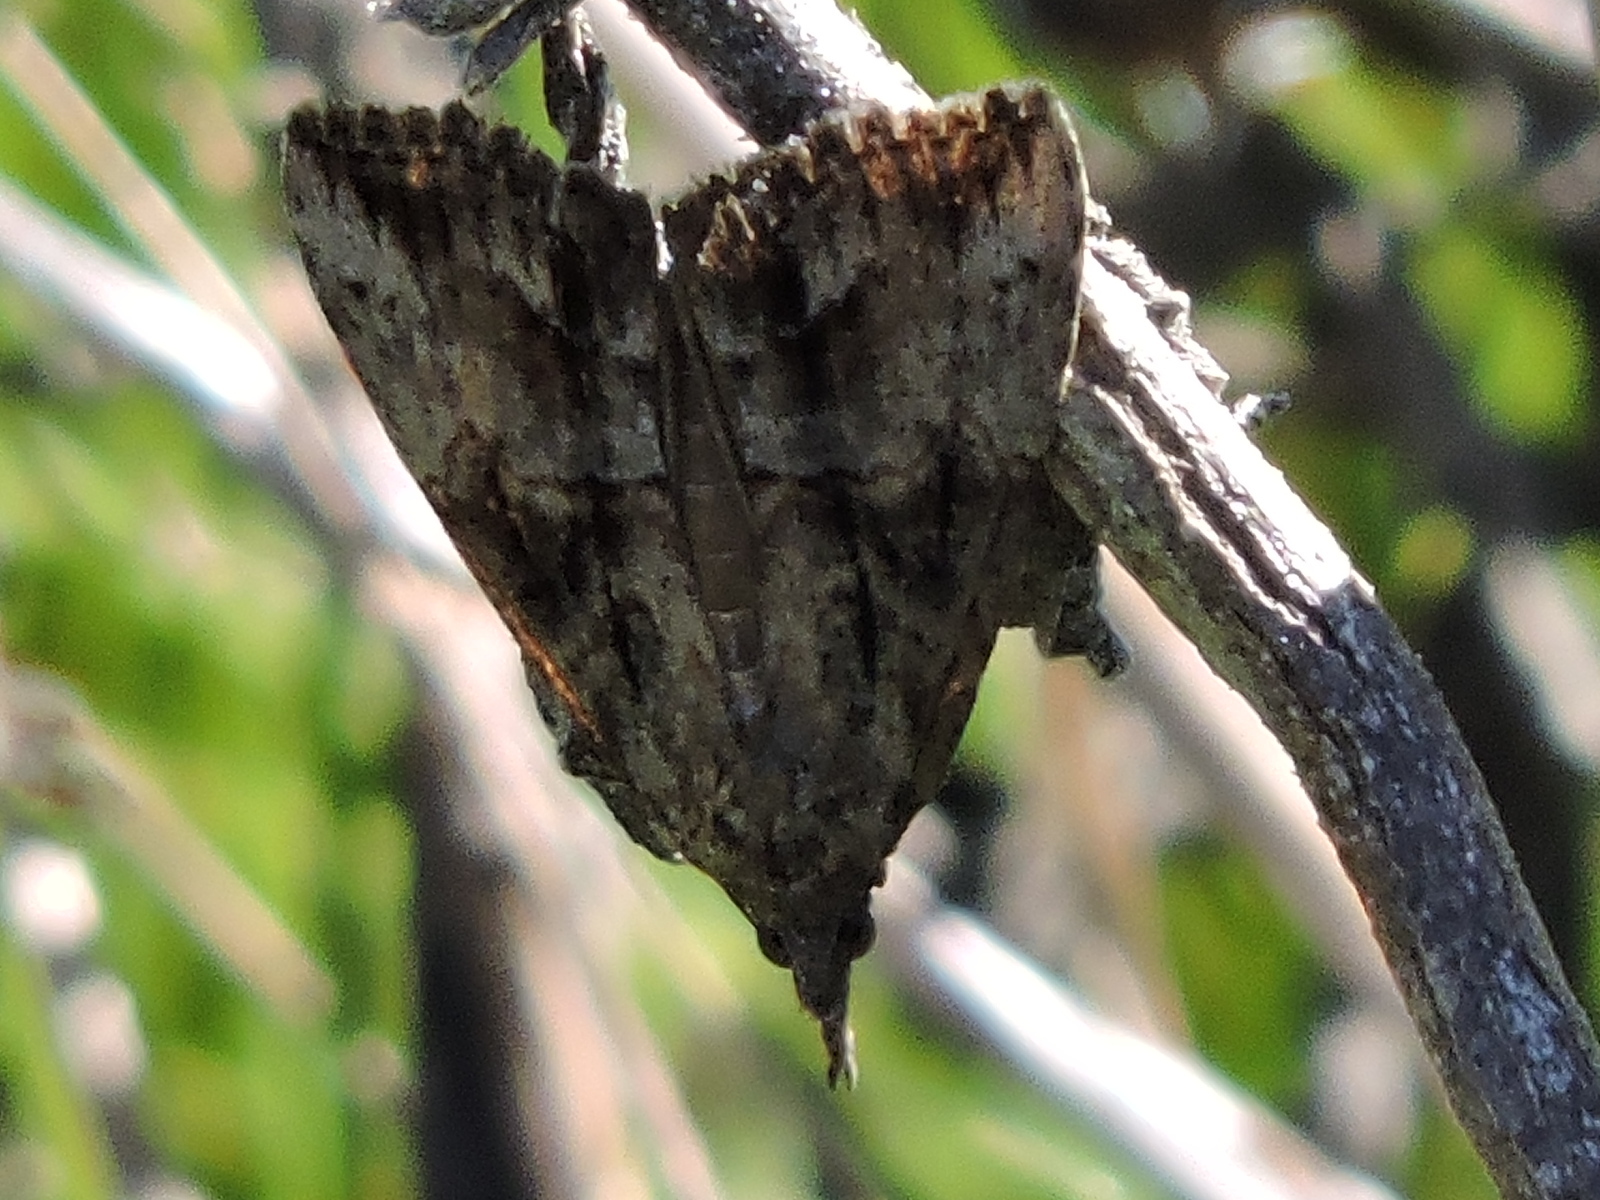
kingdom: Animalia
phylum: Arthropoda
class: Insecta
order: Lepidoptera
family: Erebidae
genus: Hypena
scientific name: Hypena scabra
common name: Green cloverworm
